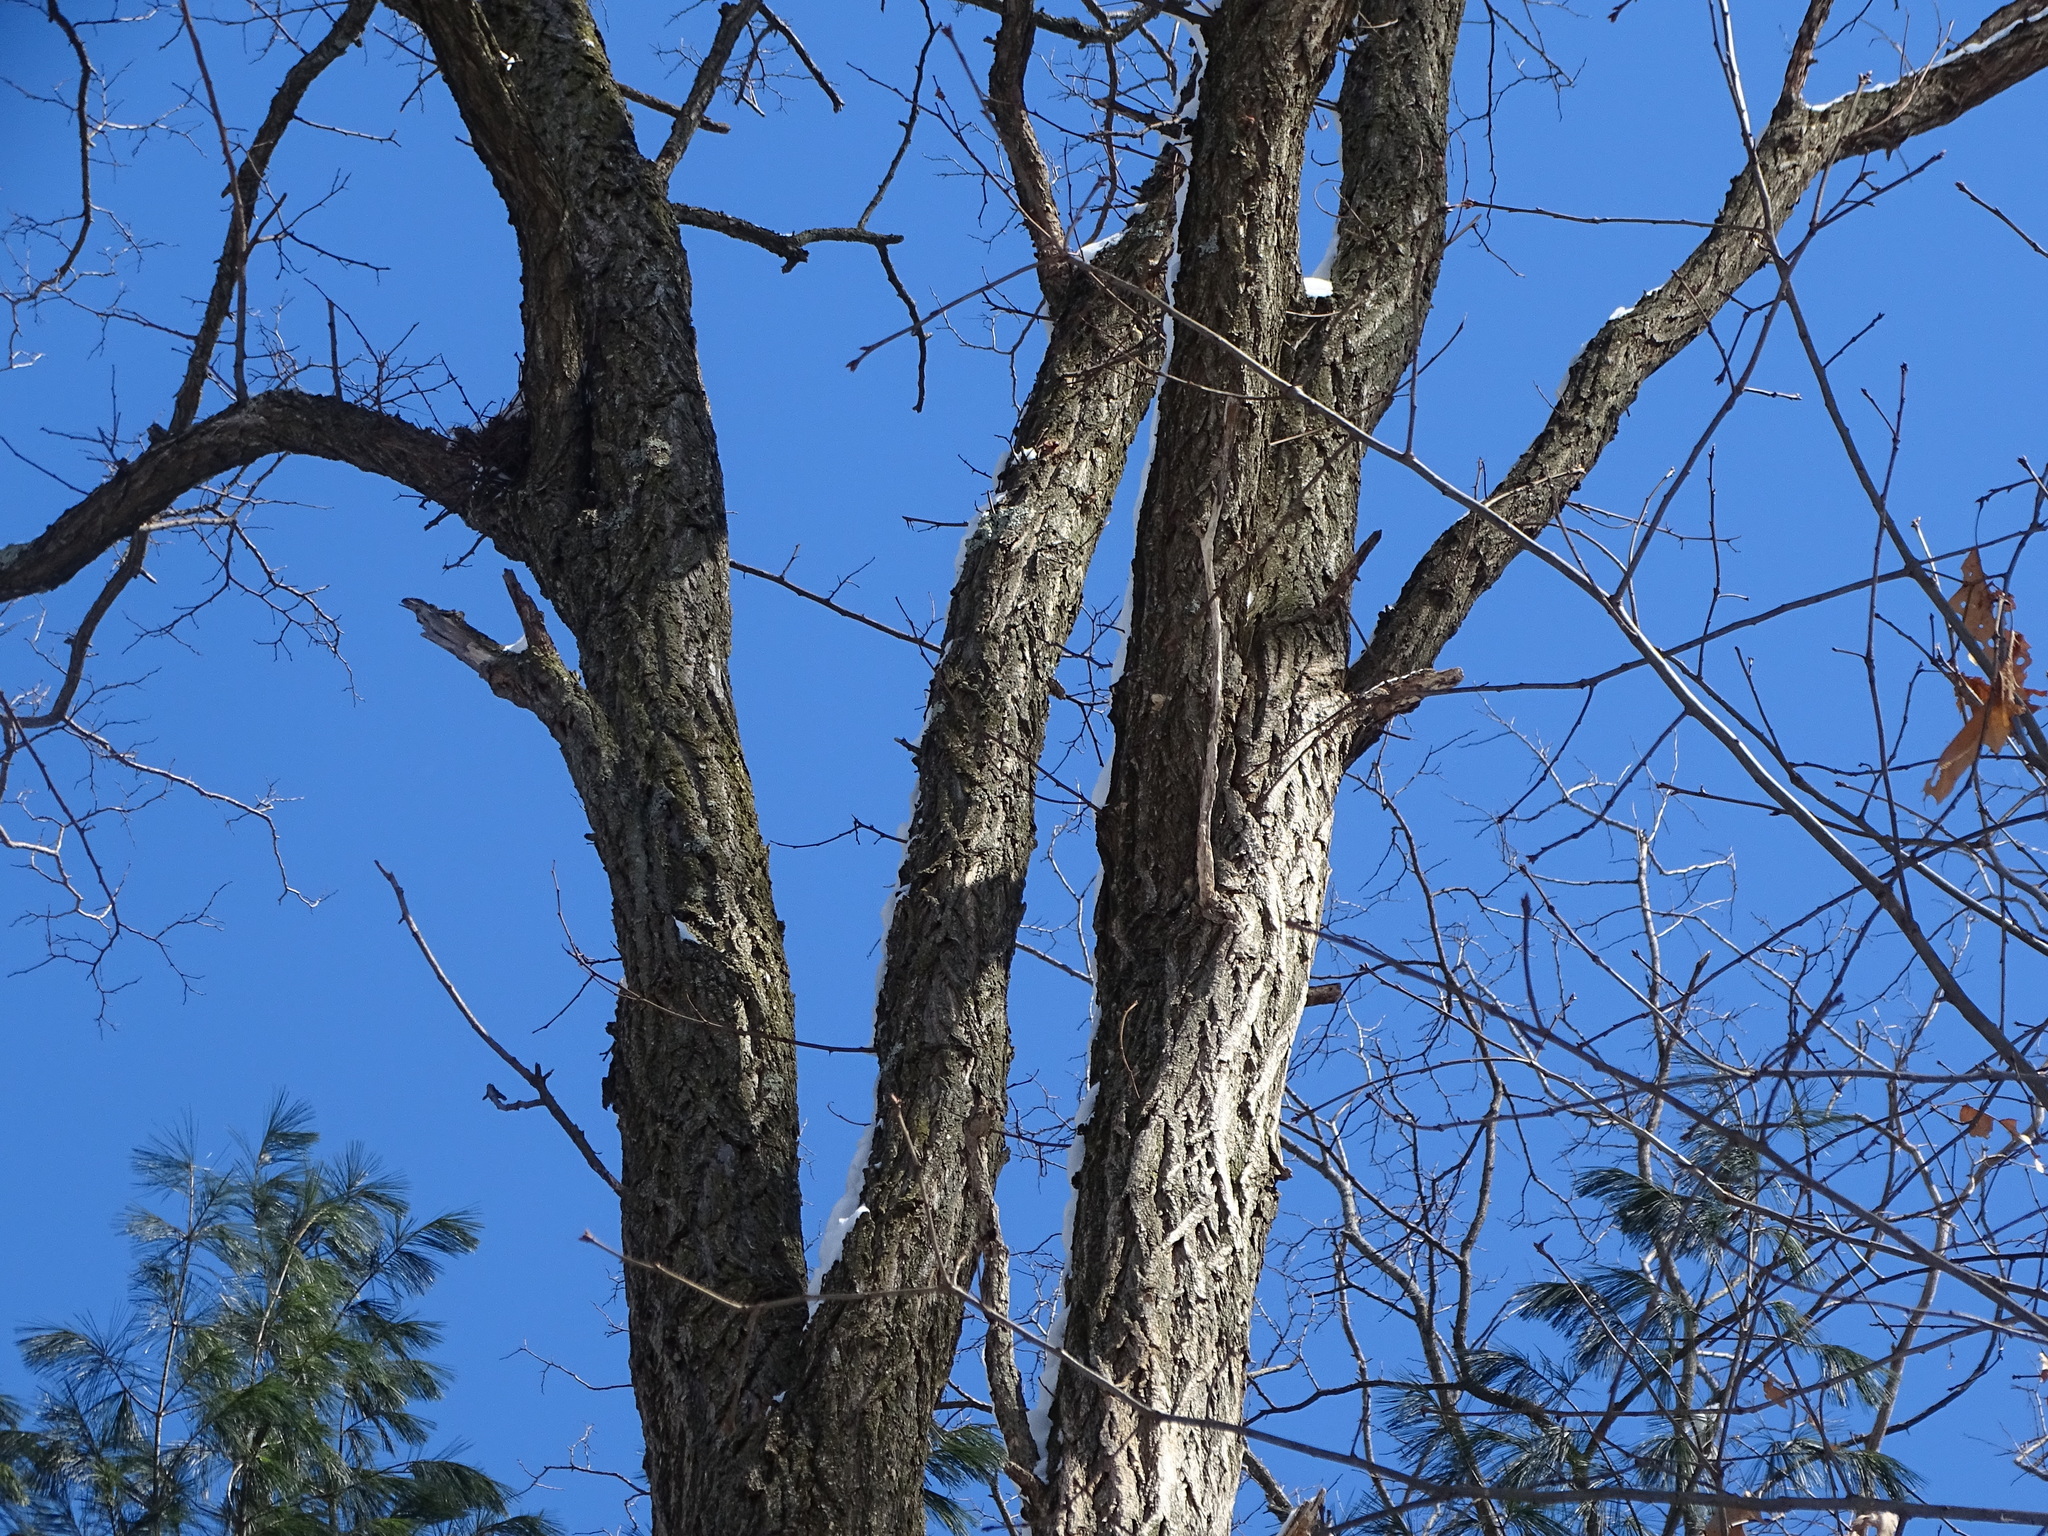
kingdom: Plantae
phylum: Tracheophyta
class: Magnoliopsida
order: Fabales
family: Fabaceae
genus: Robinia
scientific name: Robinia pseudoacacia
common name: Black locust
